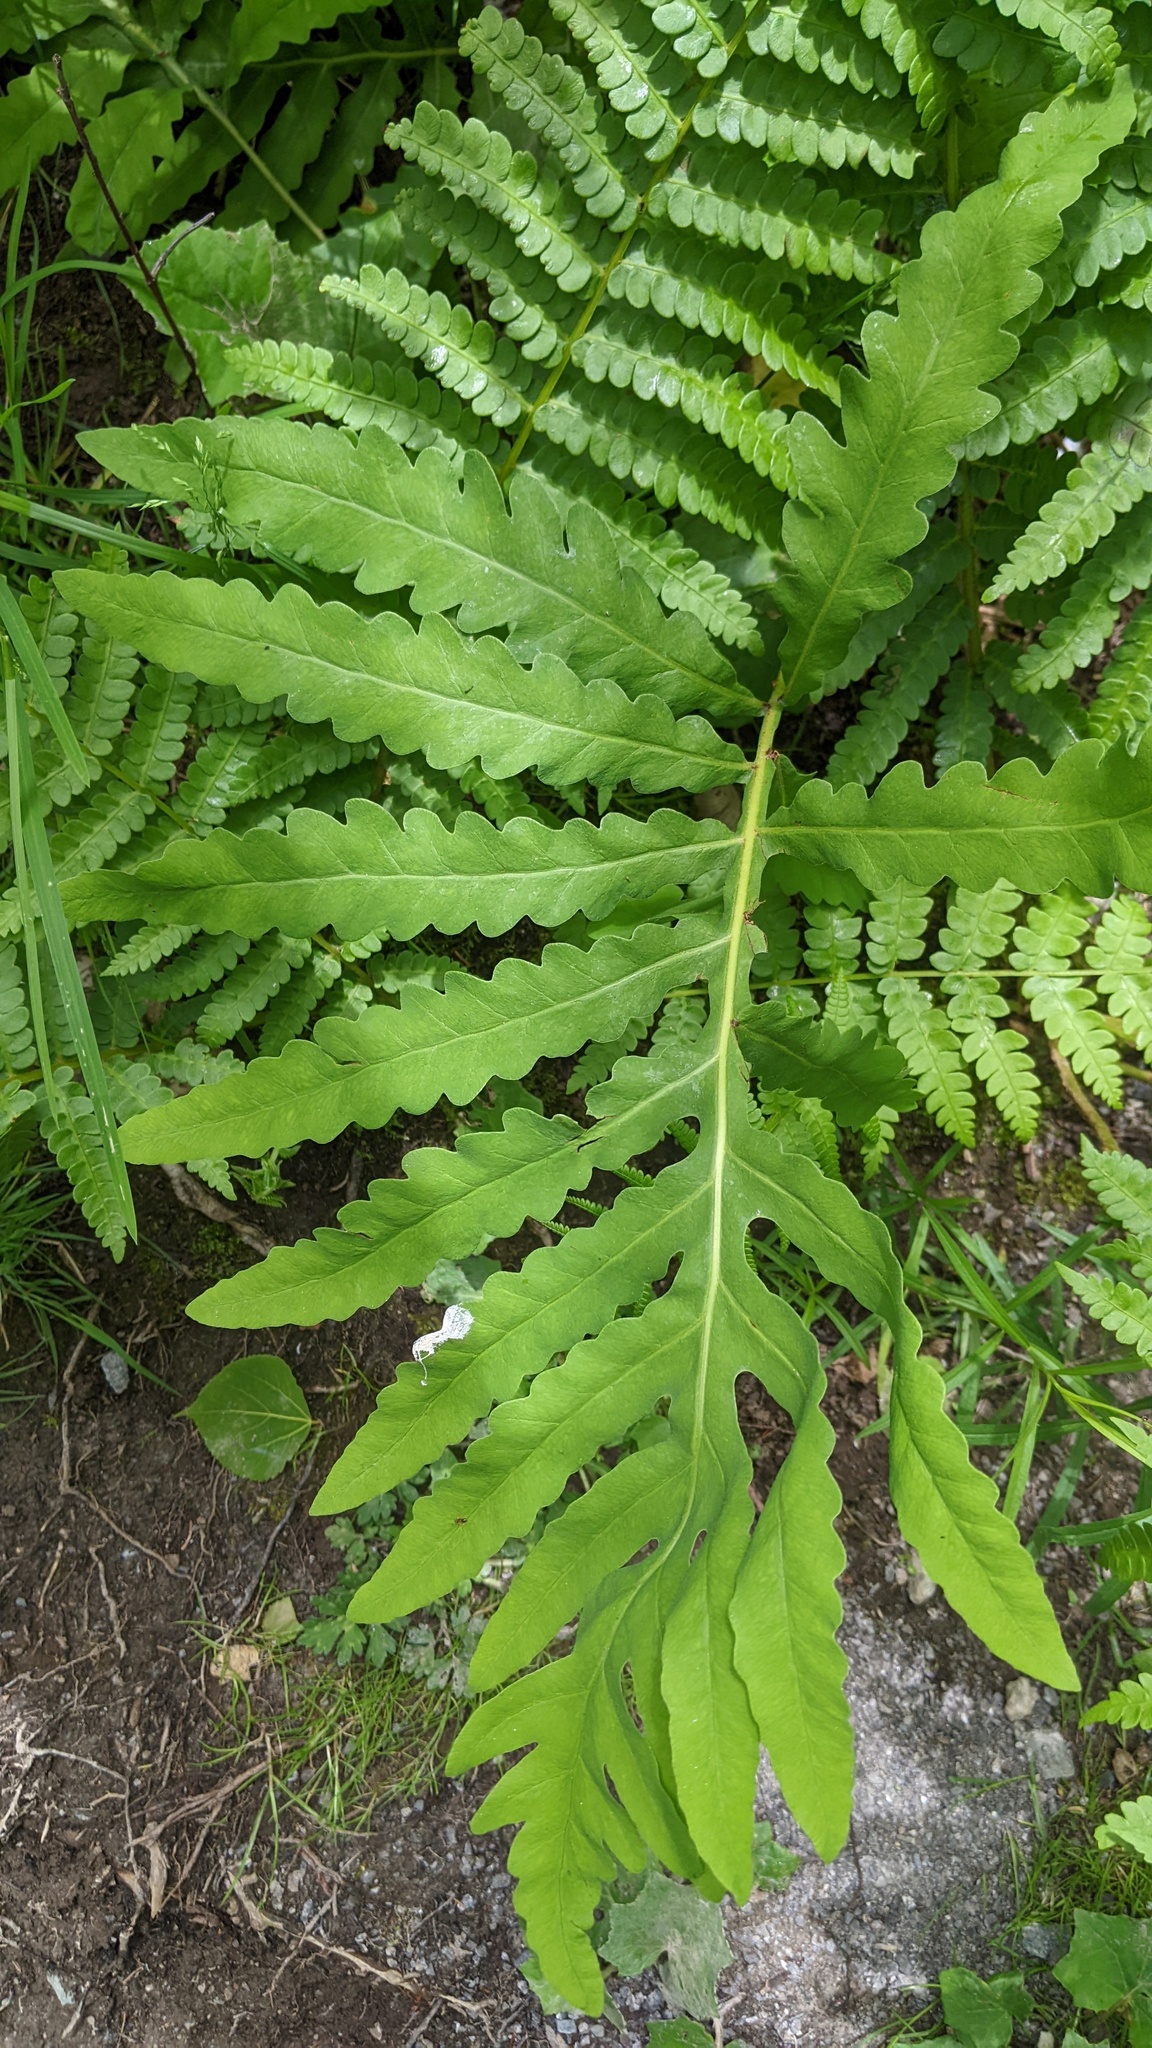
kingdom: Plantae
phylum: Tracheophyta
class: Polypodiopsida
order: Polypodiales
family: Onocleaceae
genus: Onoclea
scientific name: Onoclea sensibilis
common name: Sensitive fern
